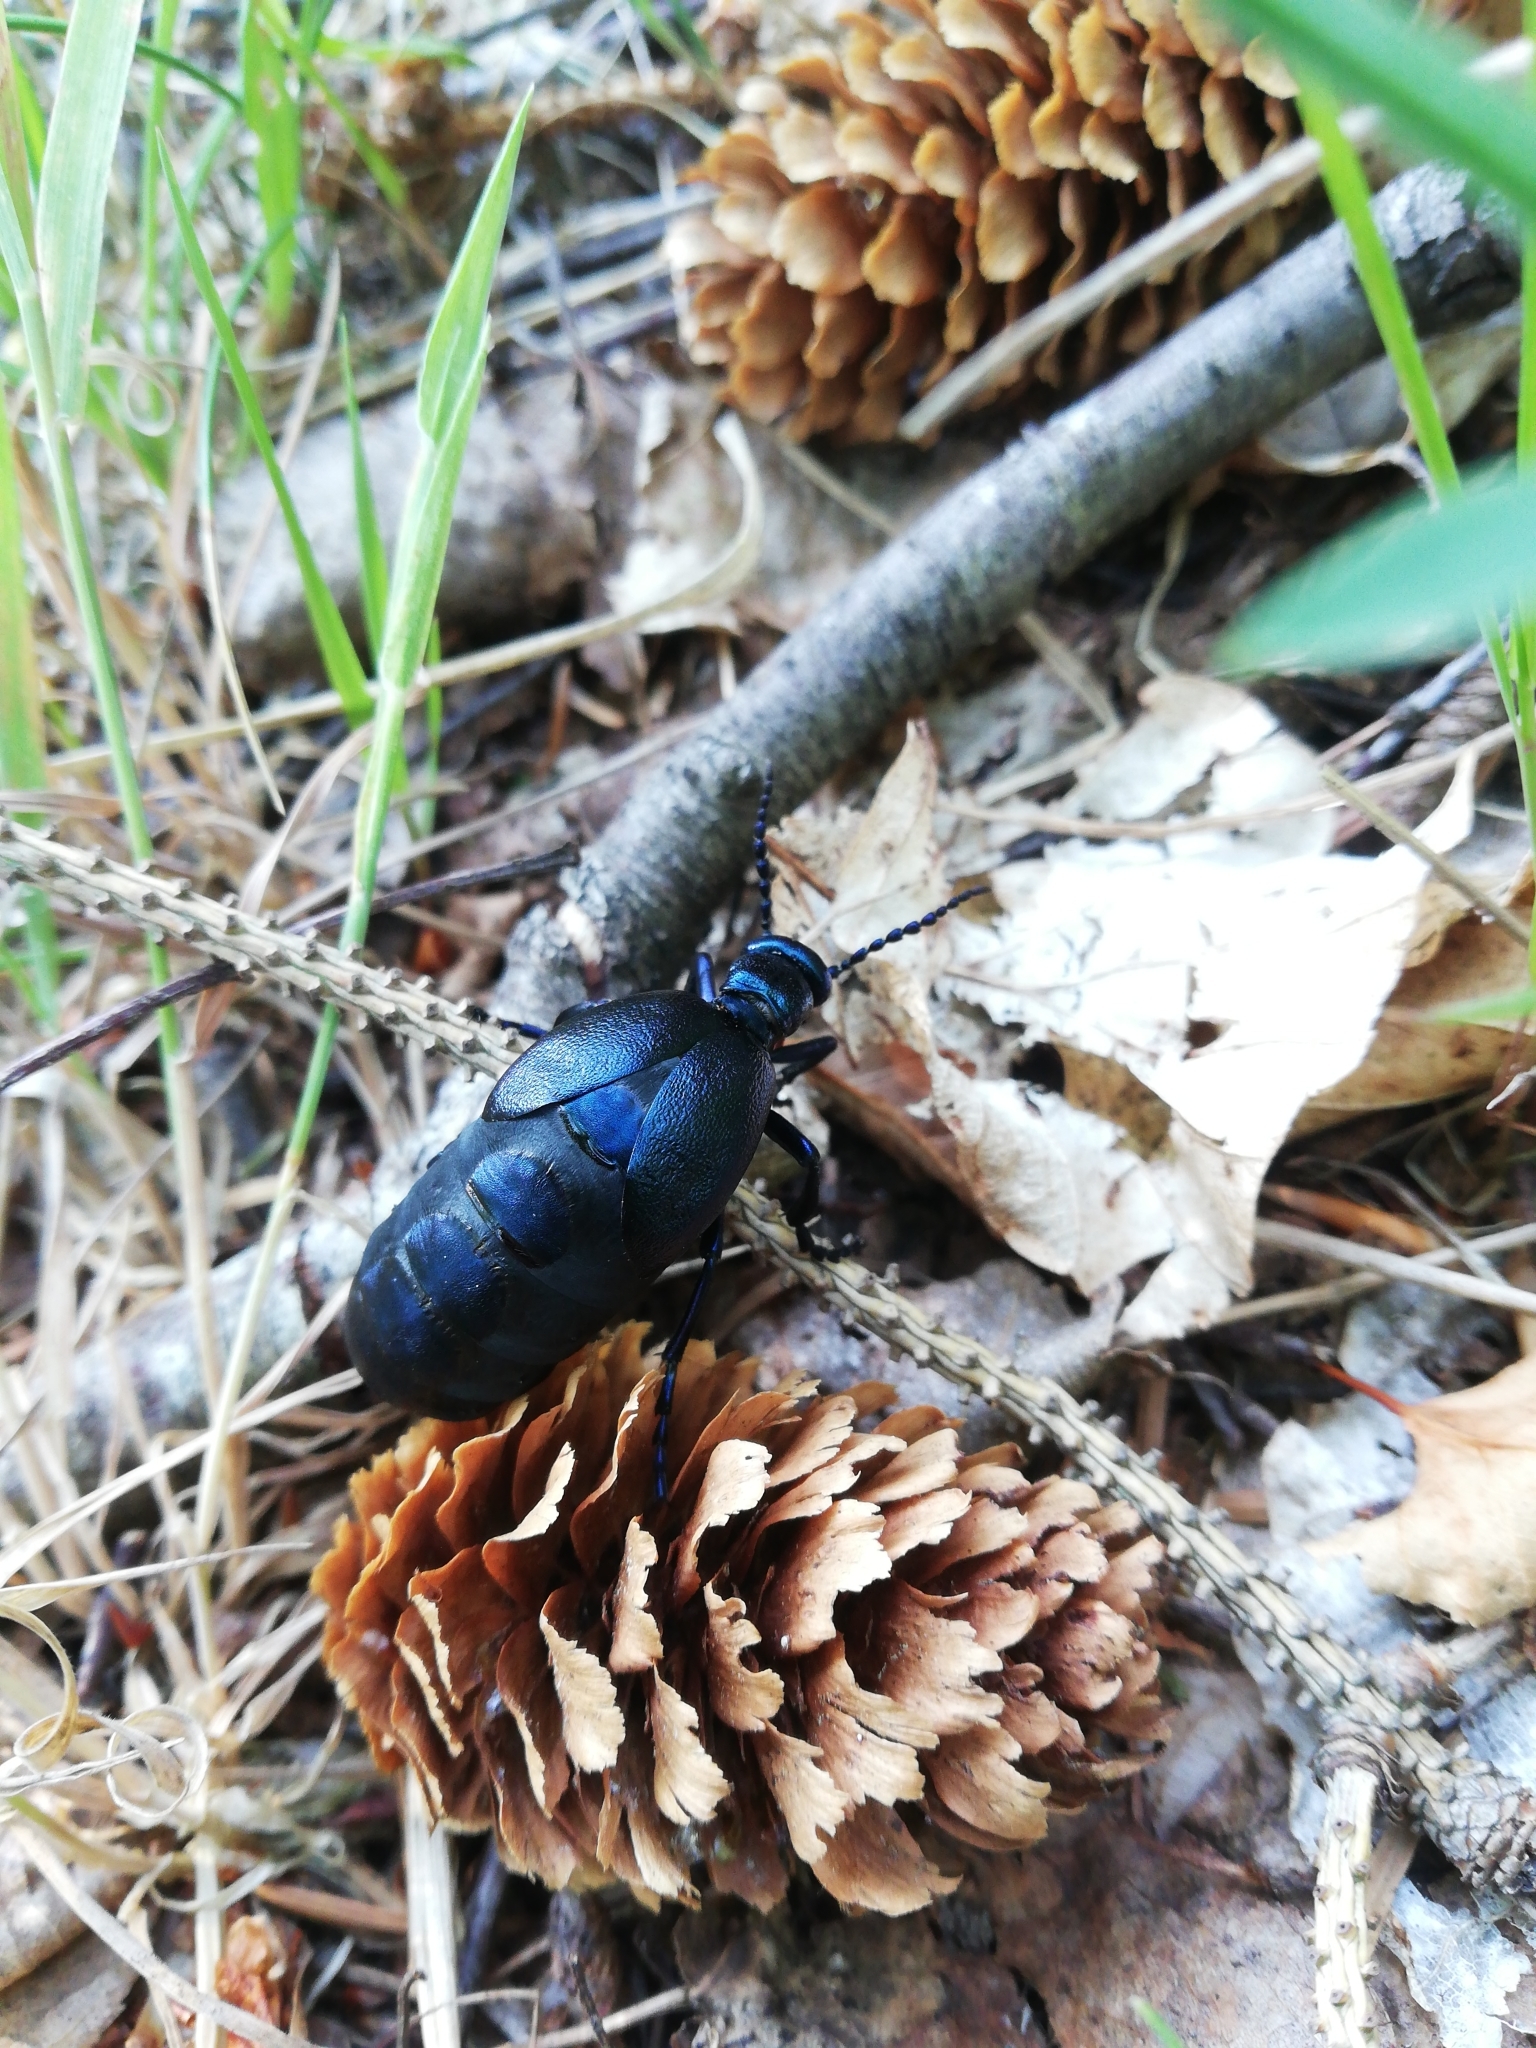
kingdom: Animalia
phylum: Arthropoda
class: Insecta
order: Coleoptera
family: Meloidae
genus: Meloe
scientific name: Meloe violaceus
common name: Violet oil-beetle
